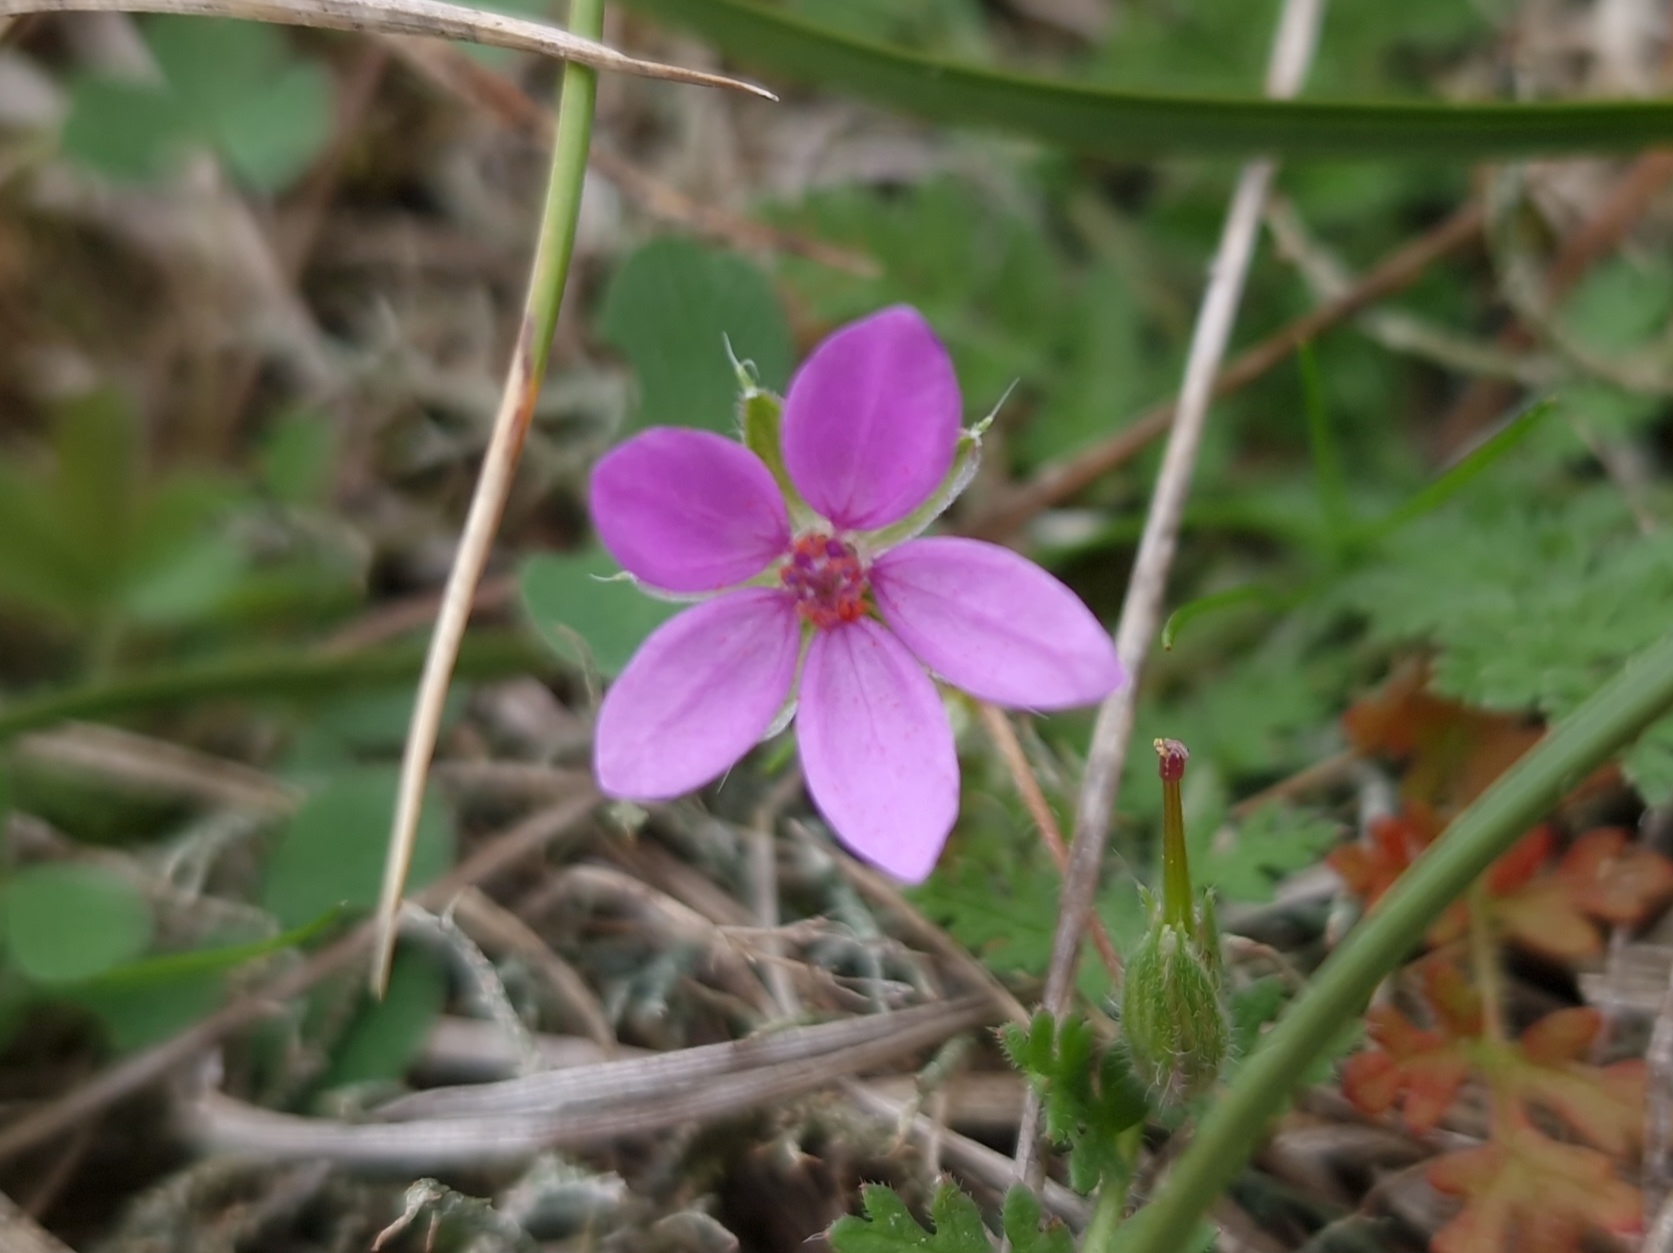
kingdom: Plantae
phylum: Tracheophyta
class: Magnoliopsida
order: Geraniales
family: Geraniaceae
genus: Erodium
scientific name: Erodium cicutarium
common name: Common stork's-bill
